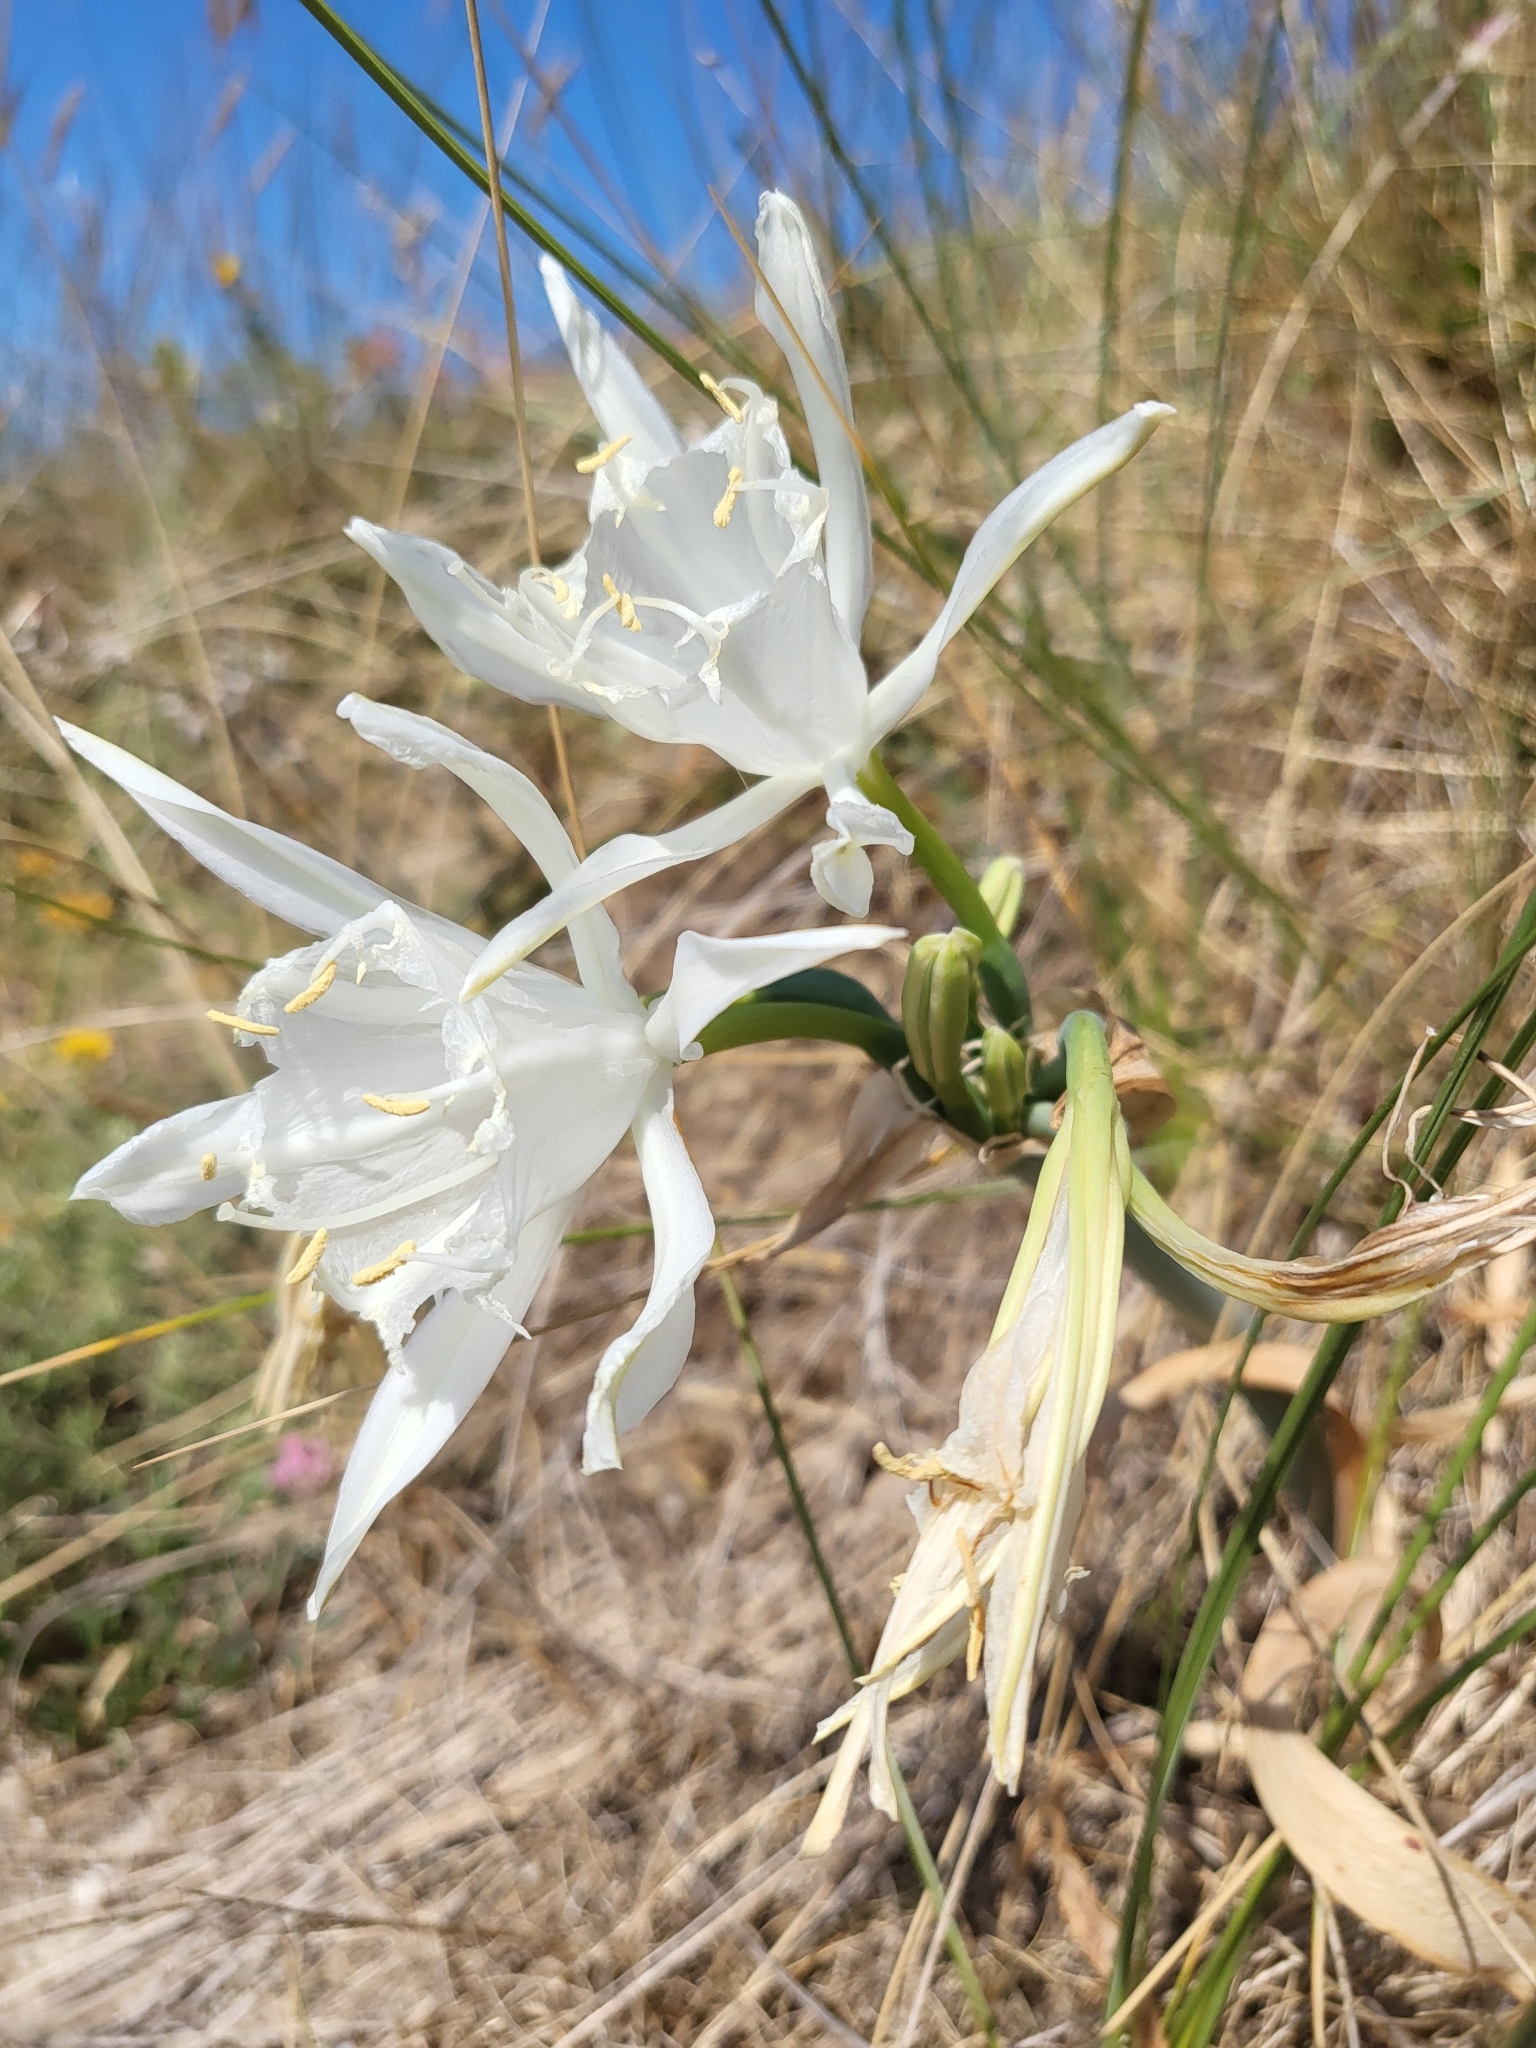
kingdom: Plantae
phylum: Tracheophyta
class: Liliopsida
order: Asparagales
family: Amaryllidaceae
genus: Pancratium
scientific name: Pancratium maritimum
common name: Sea-daffodil
